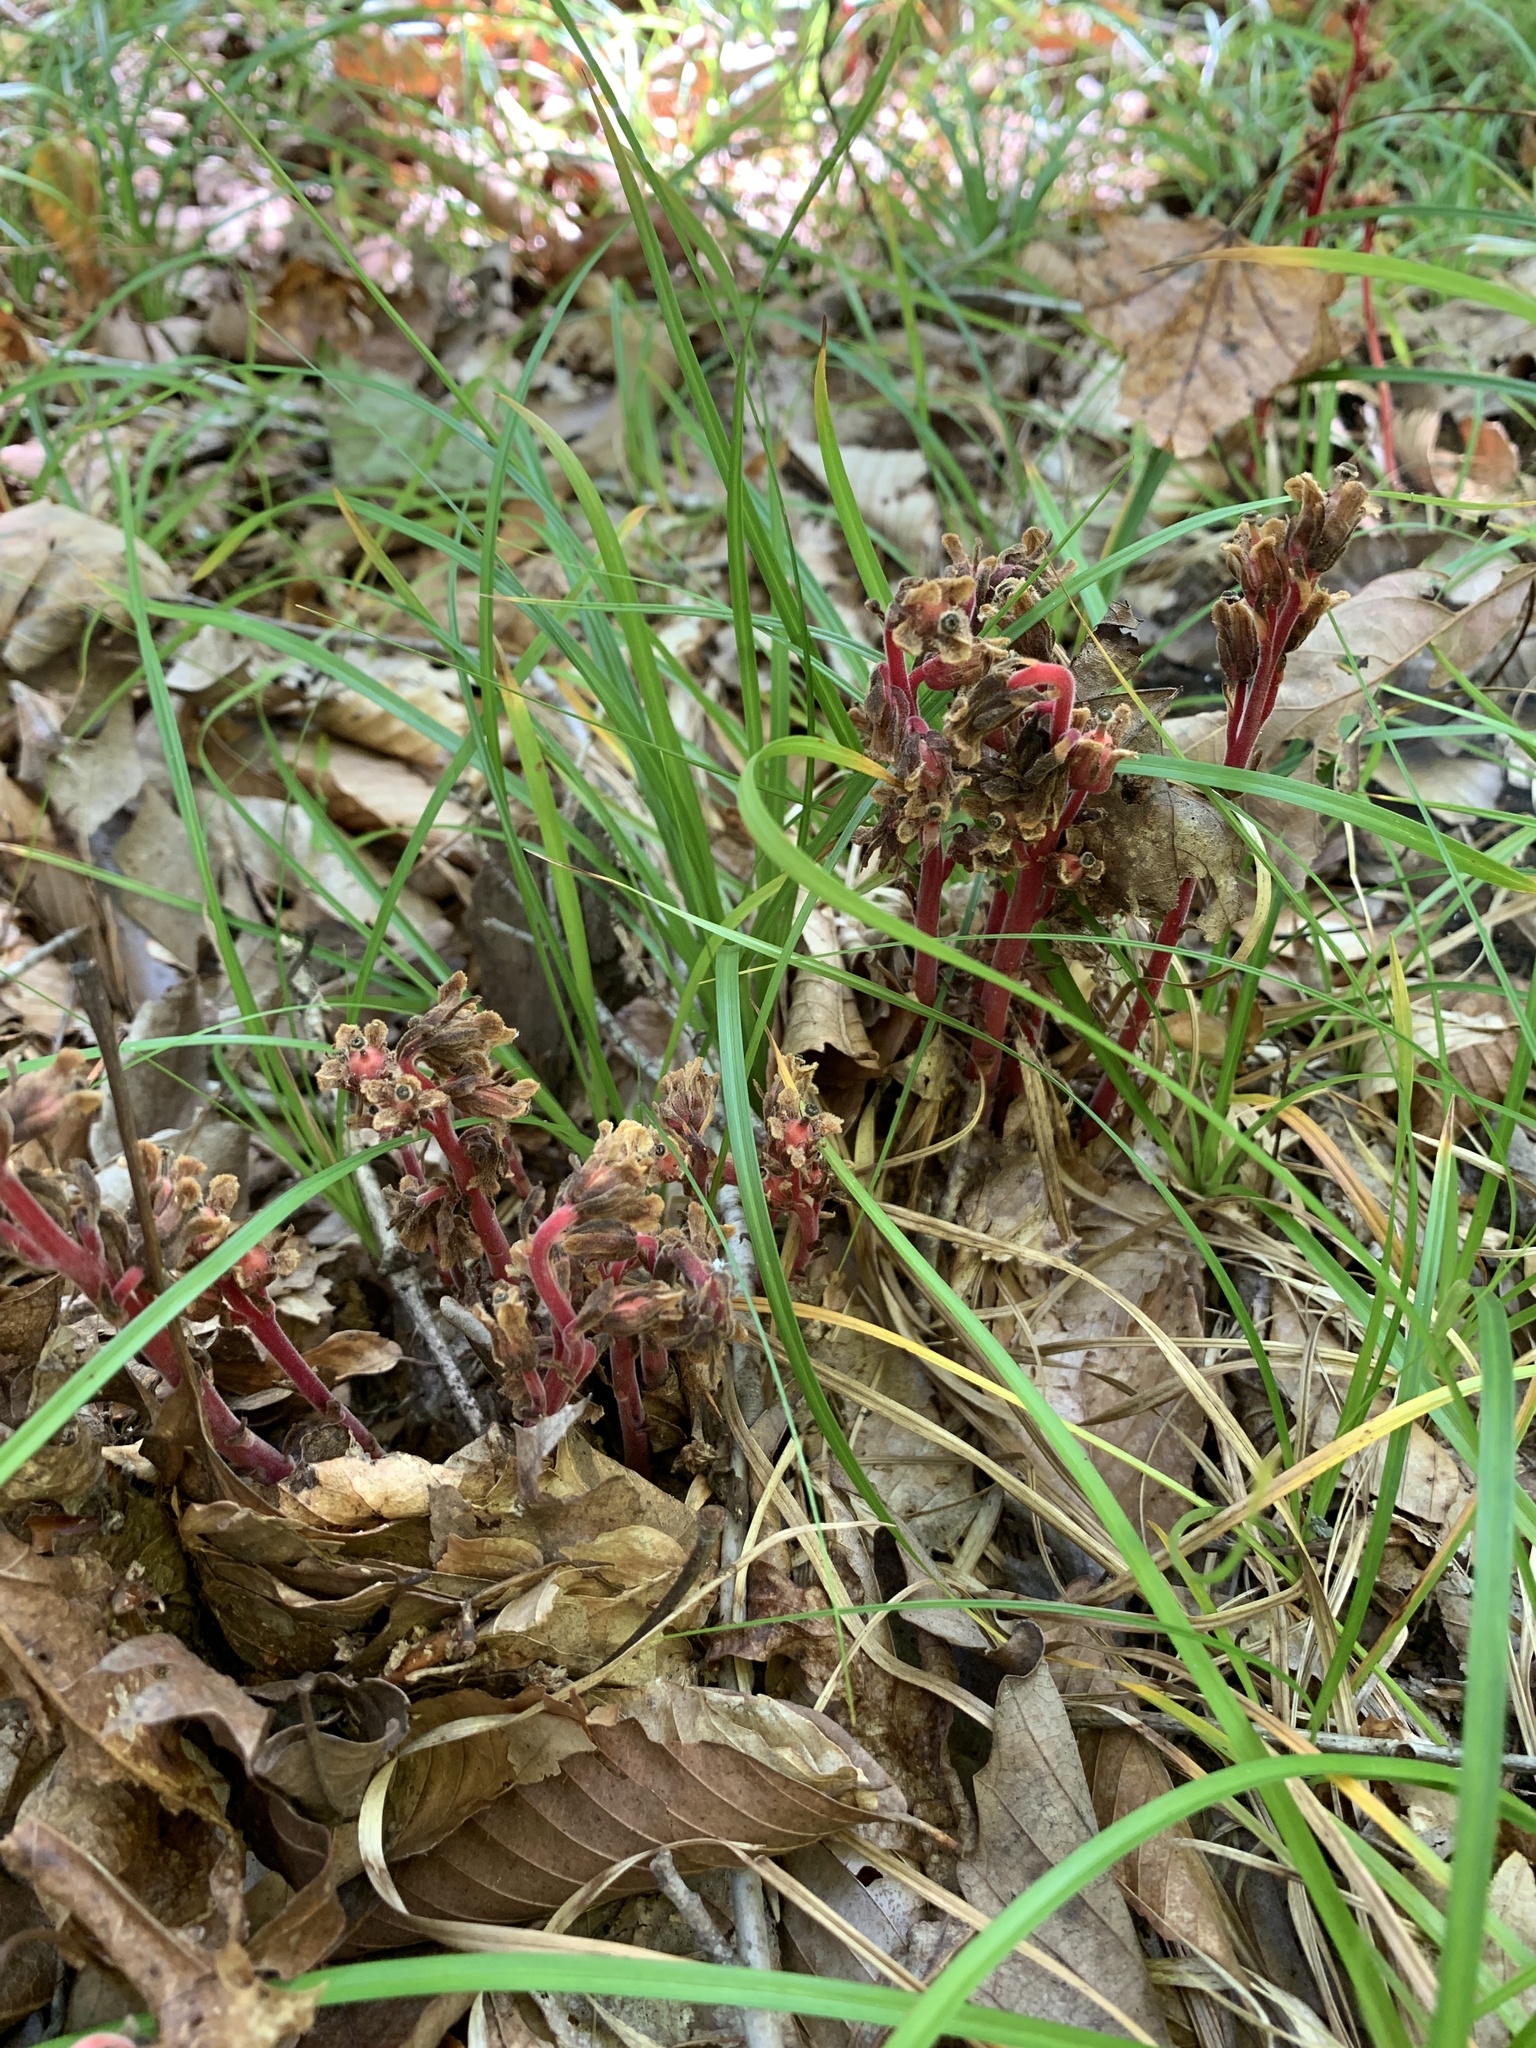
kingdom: Plantae
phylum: Tracheophyta
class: Magnoliopsida
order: Ericales
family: Ericaceae
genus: Hypopitys
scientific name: Hypopitys monotropa
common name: Yellow bird's-nest
